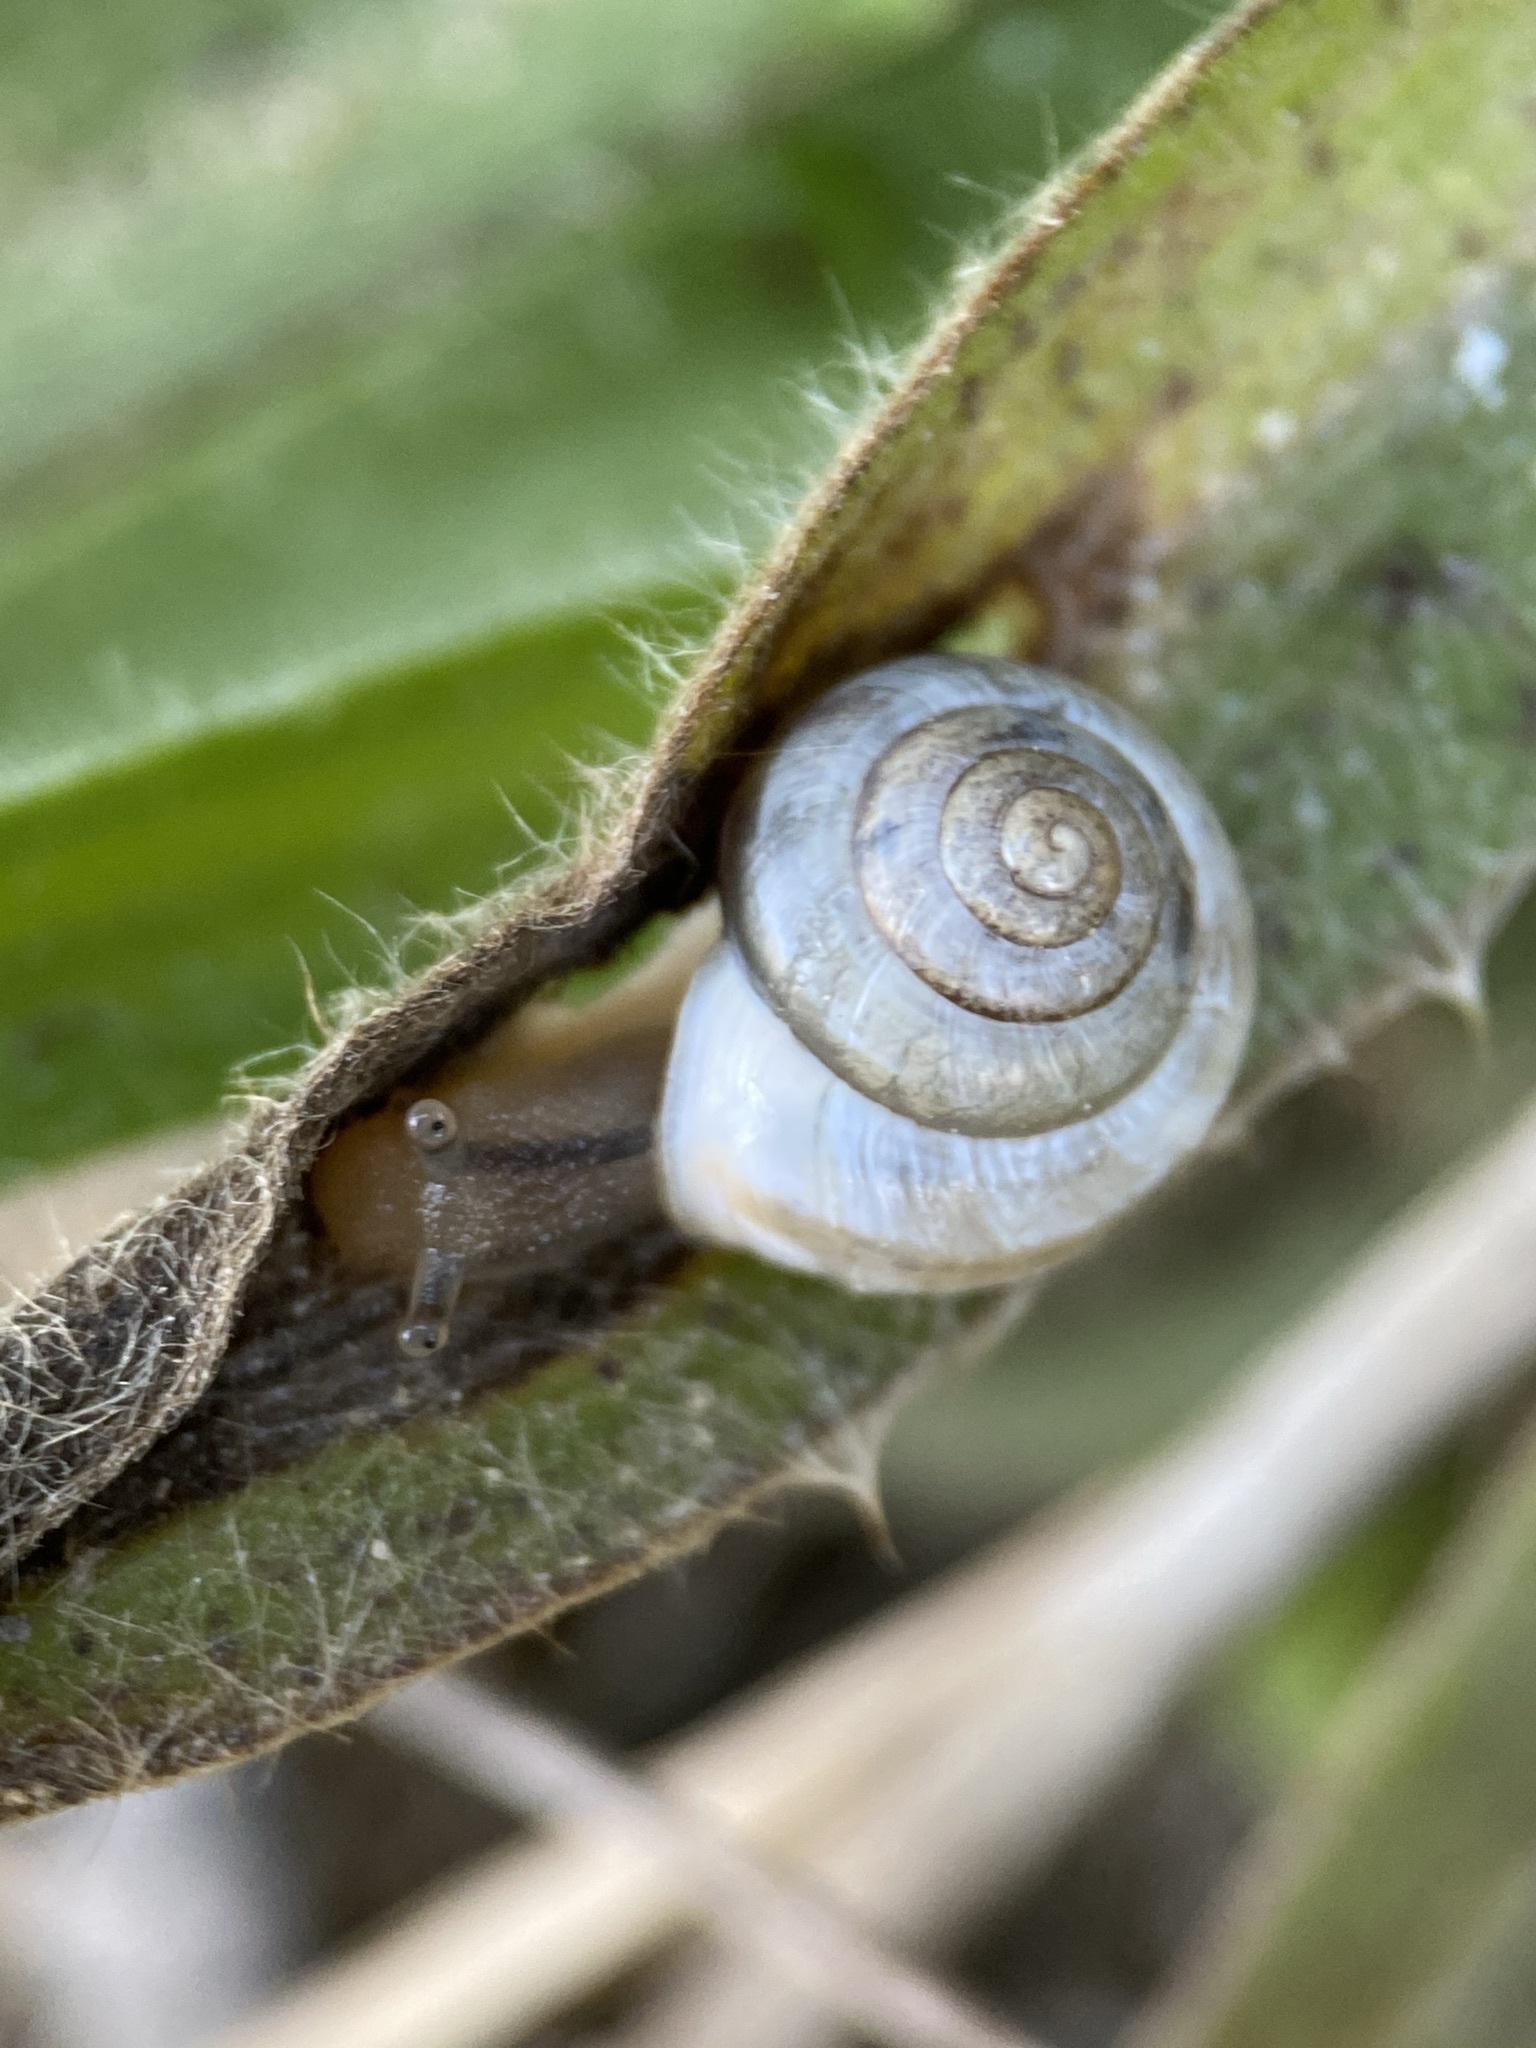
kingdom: Animalia
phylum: Mollusca
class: Gastropoda
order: Stylommatophora
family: Camaenidae
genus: Bradybaena
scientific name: Bradybaena similaris
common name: Asian trampsnail
